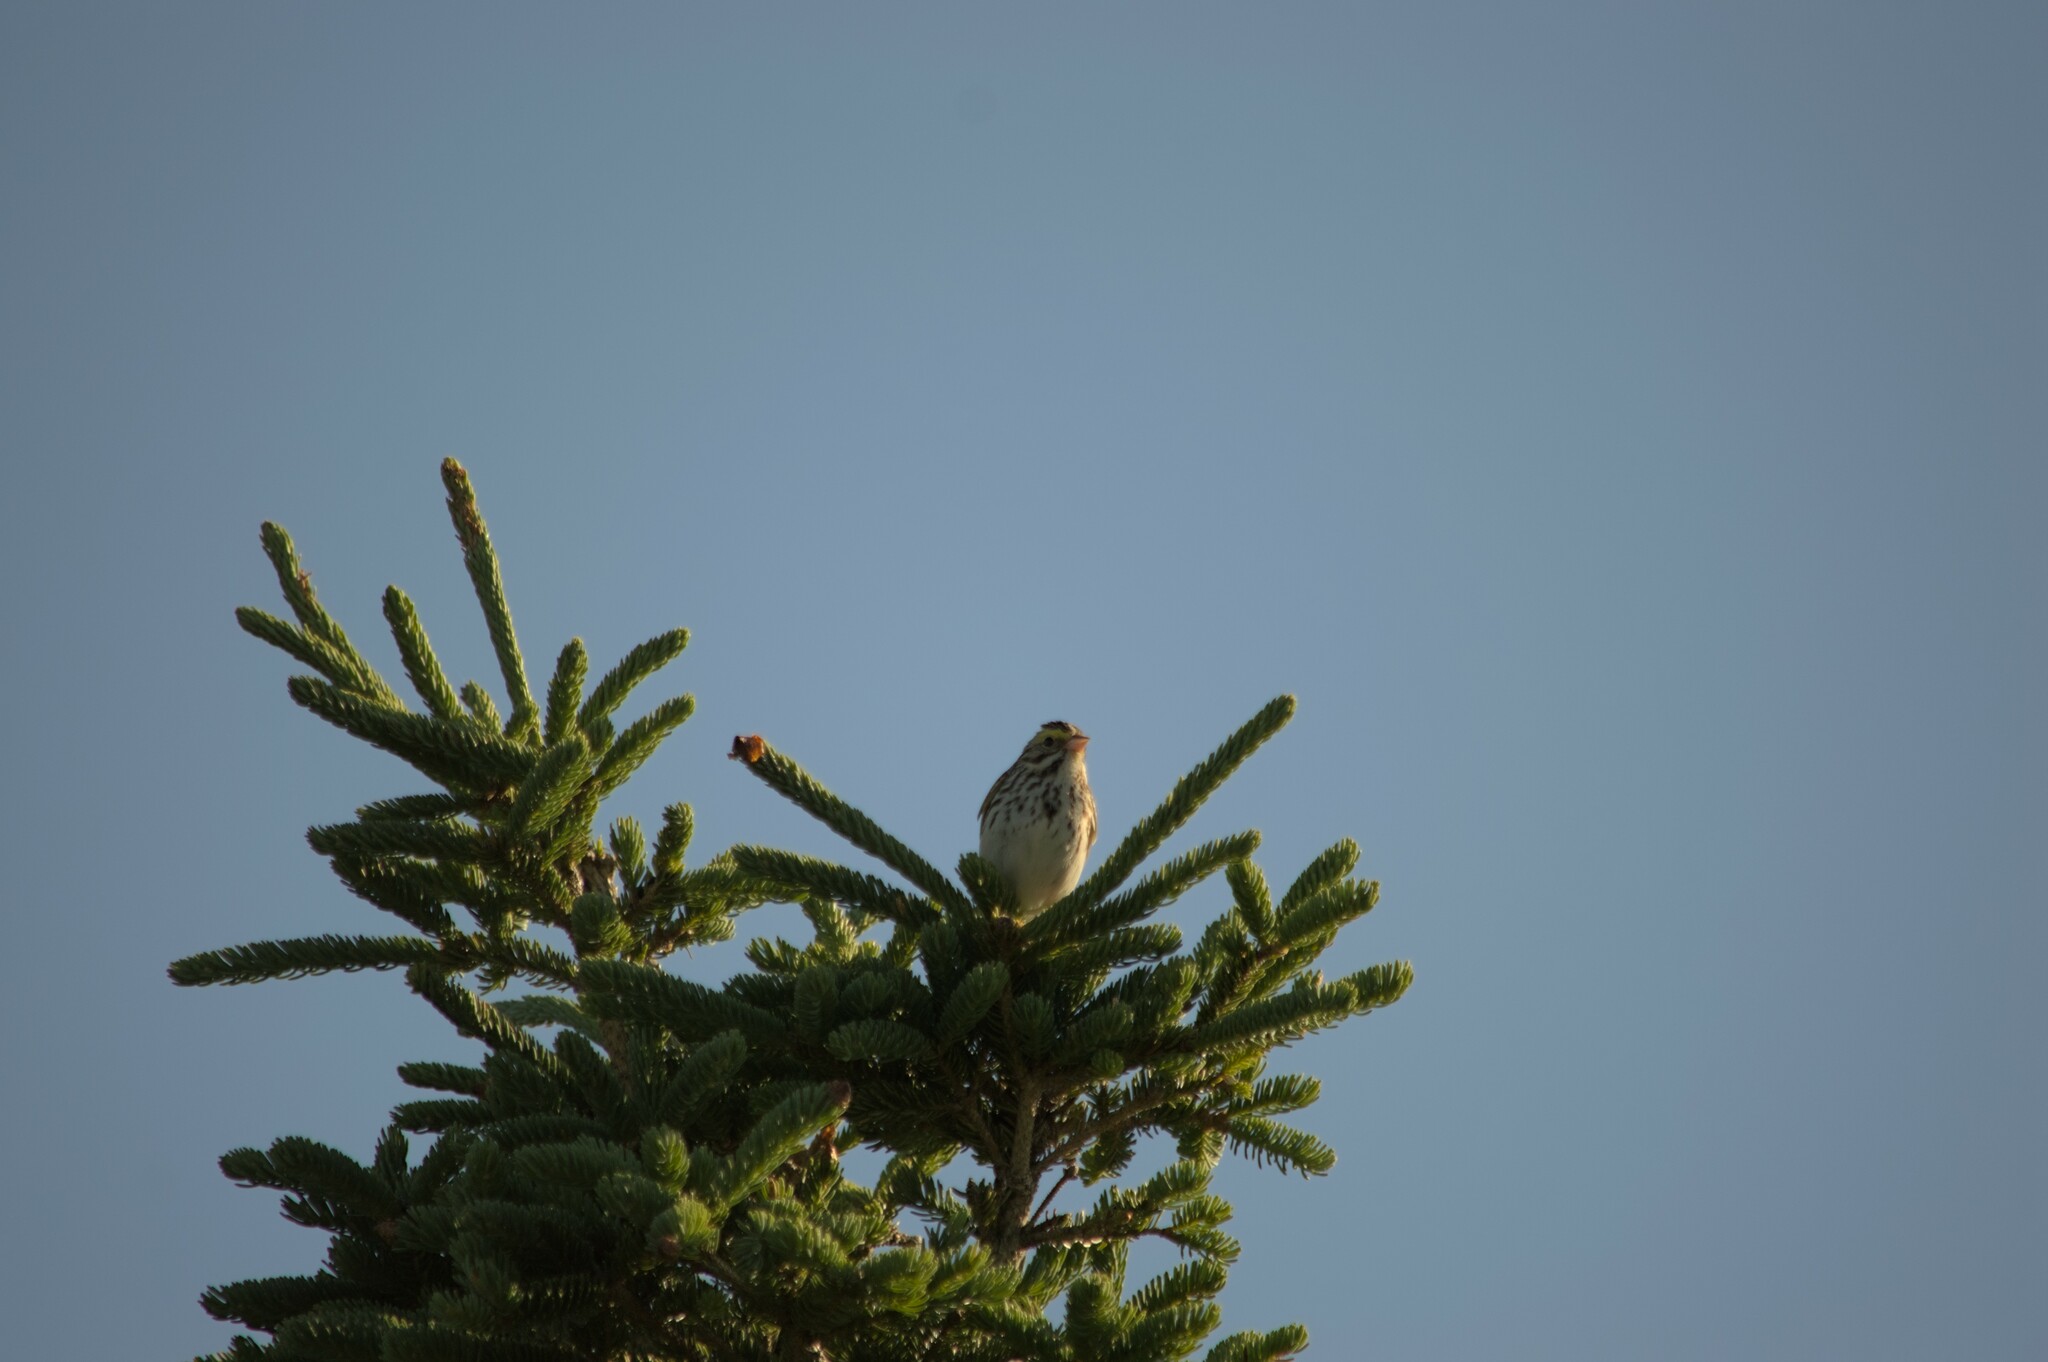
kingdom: Animalia
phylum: Chordata
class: Aves
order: Passeriformes
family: Passerellidae
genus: Passerculus
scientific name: Passerculus sandwichensis
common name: Savannah sparrow
